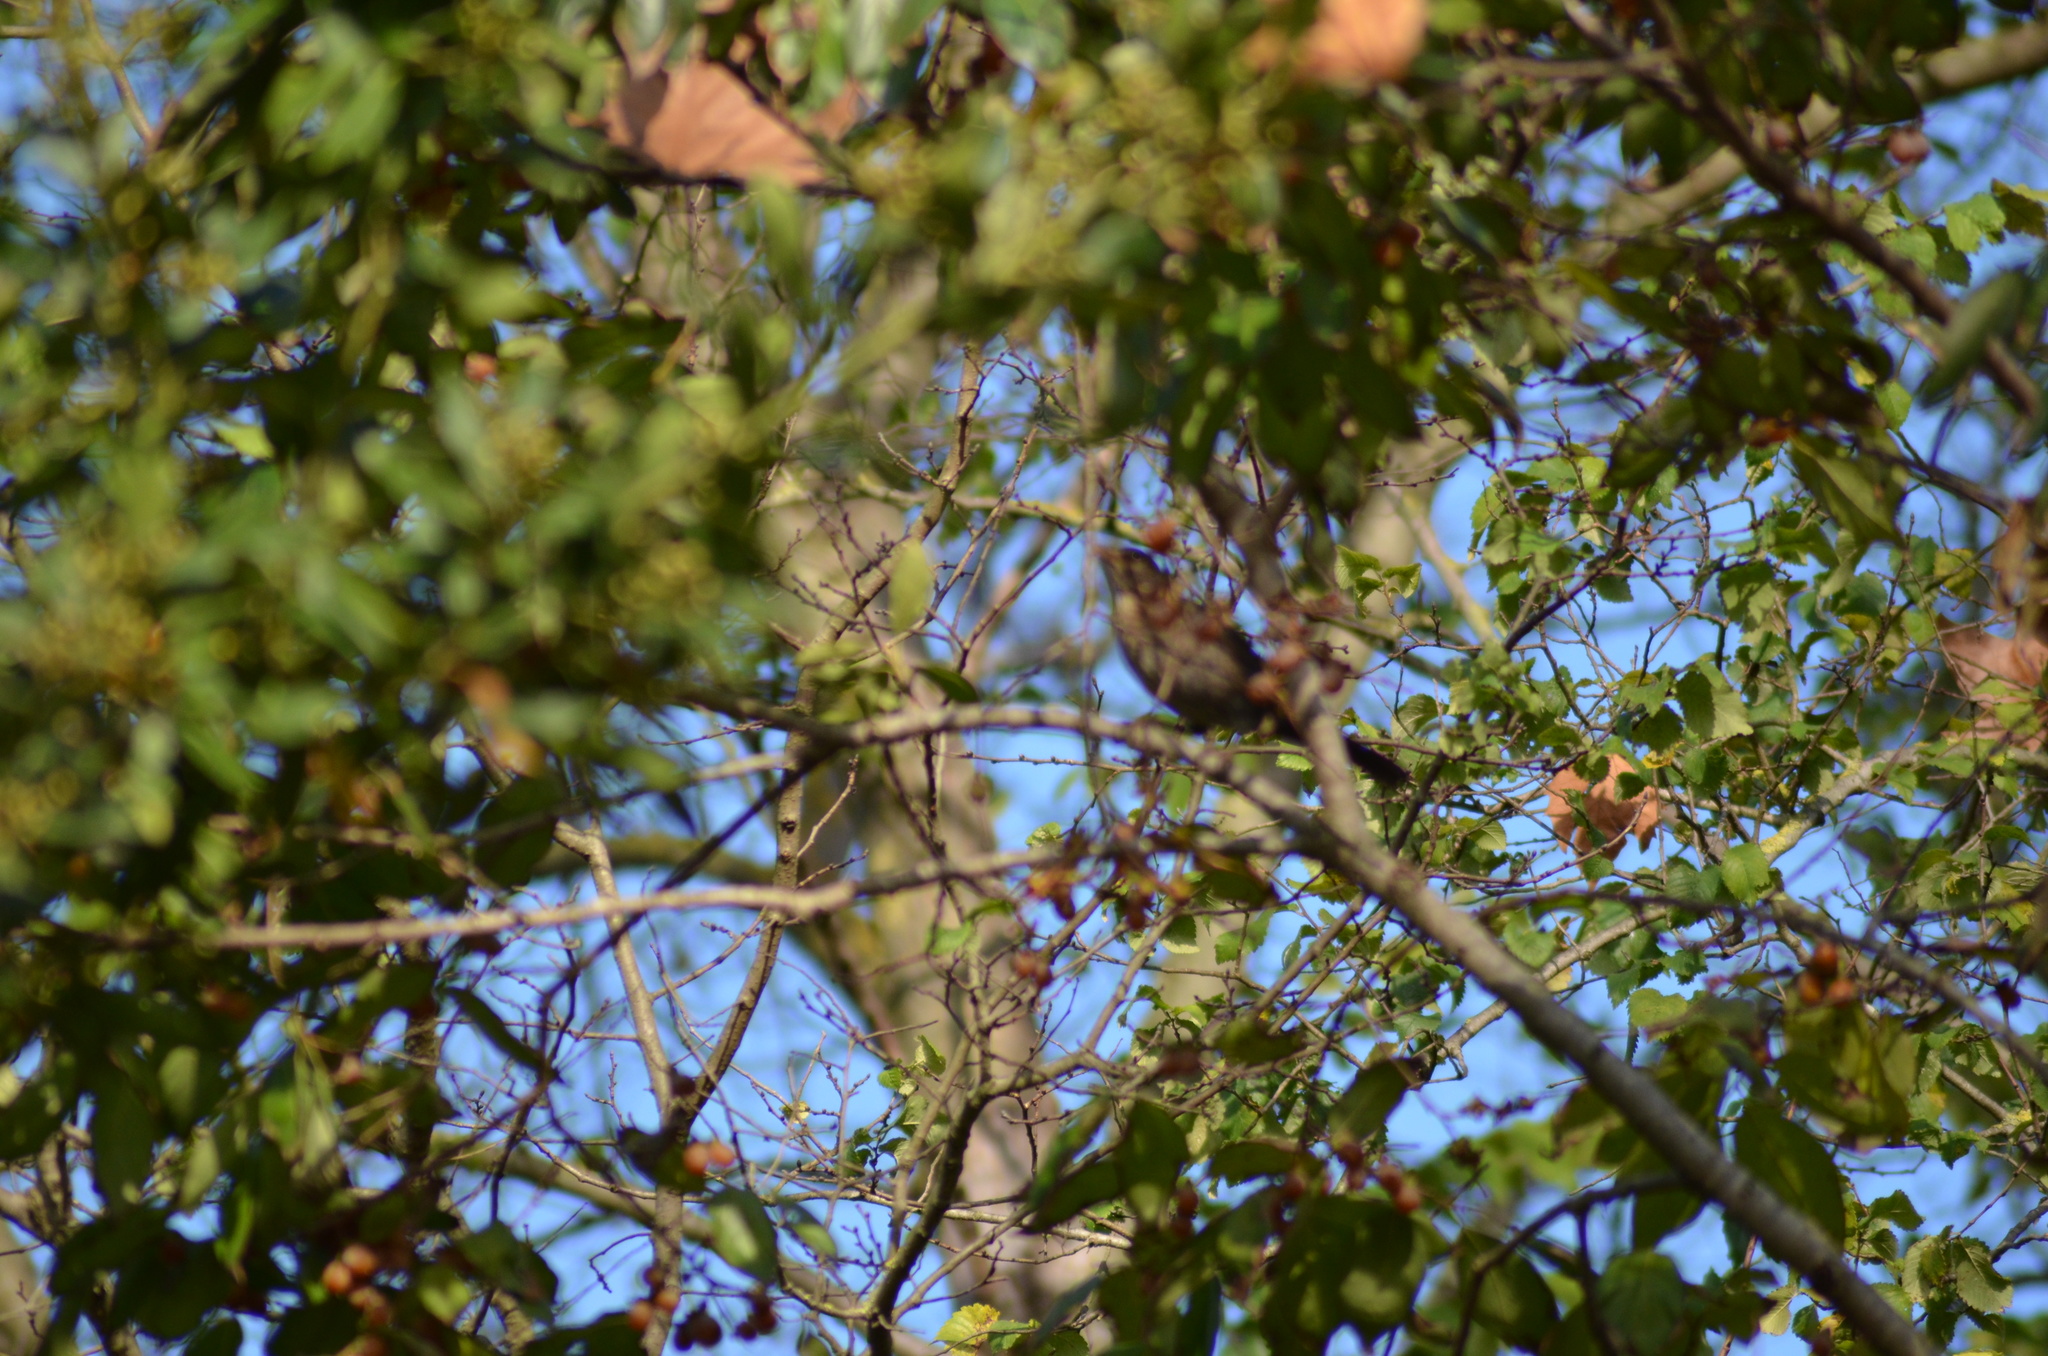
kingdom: Animalia
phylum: Chordata
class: Aves
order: Passeriformes
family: Turdidae
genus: Turdus
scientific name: Turdus merula
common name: Common blackbird
